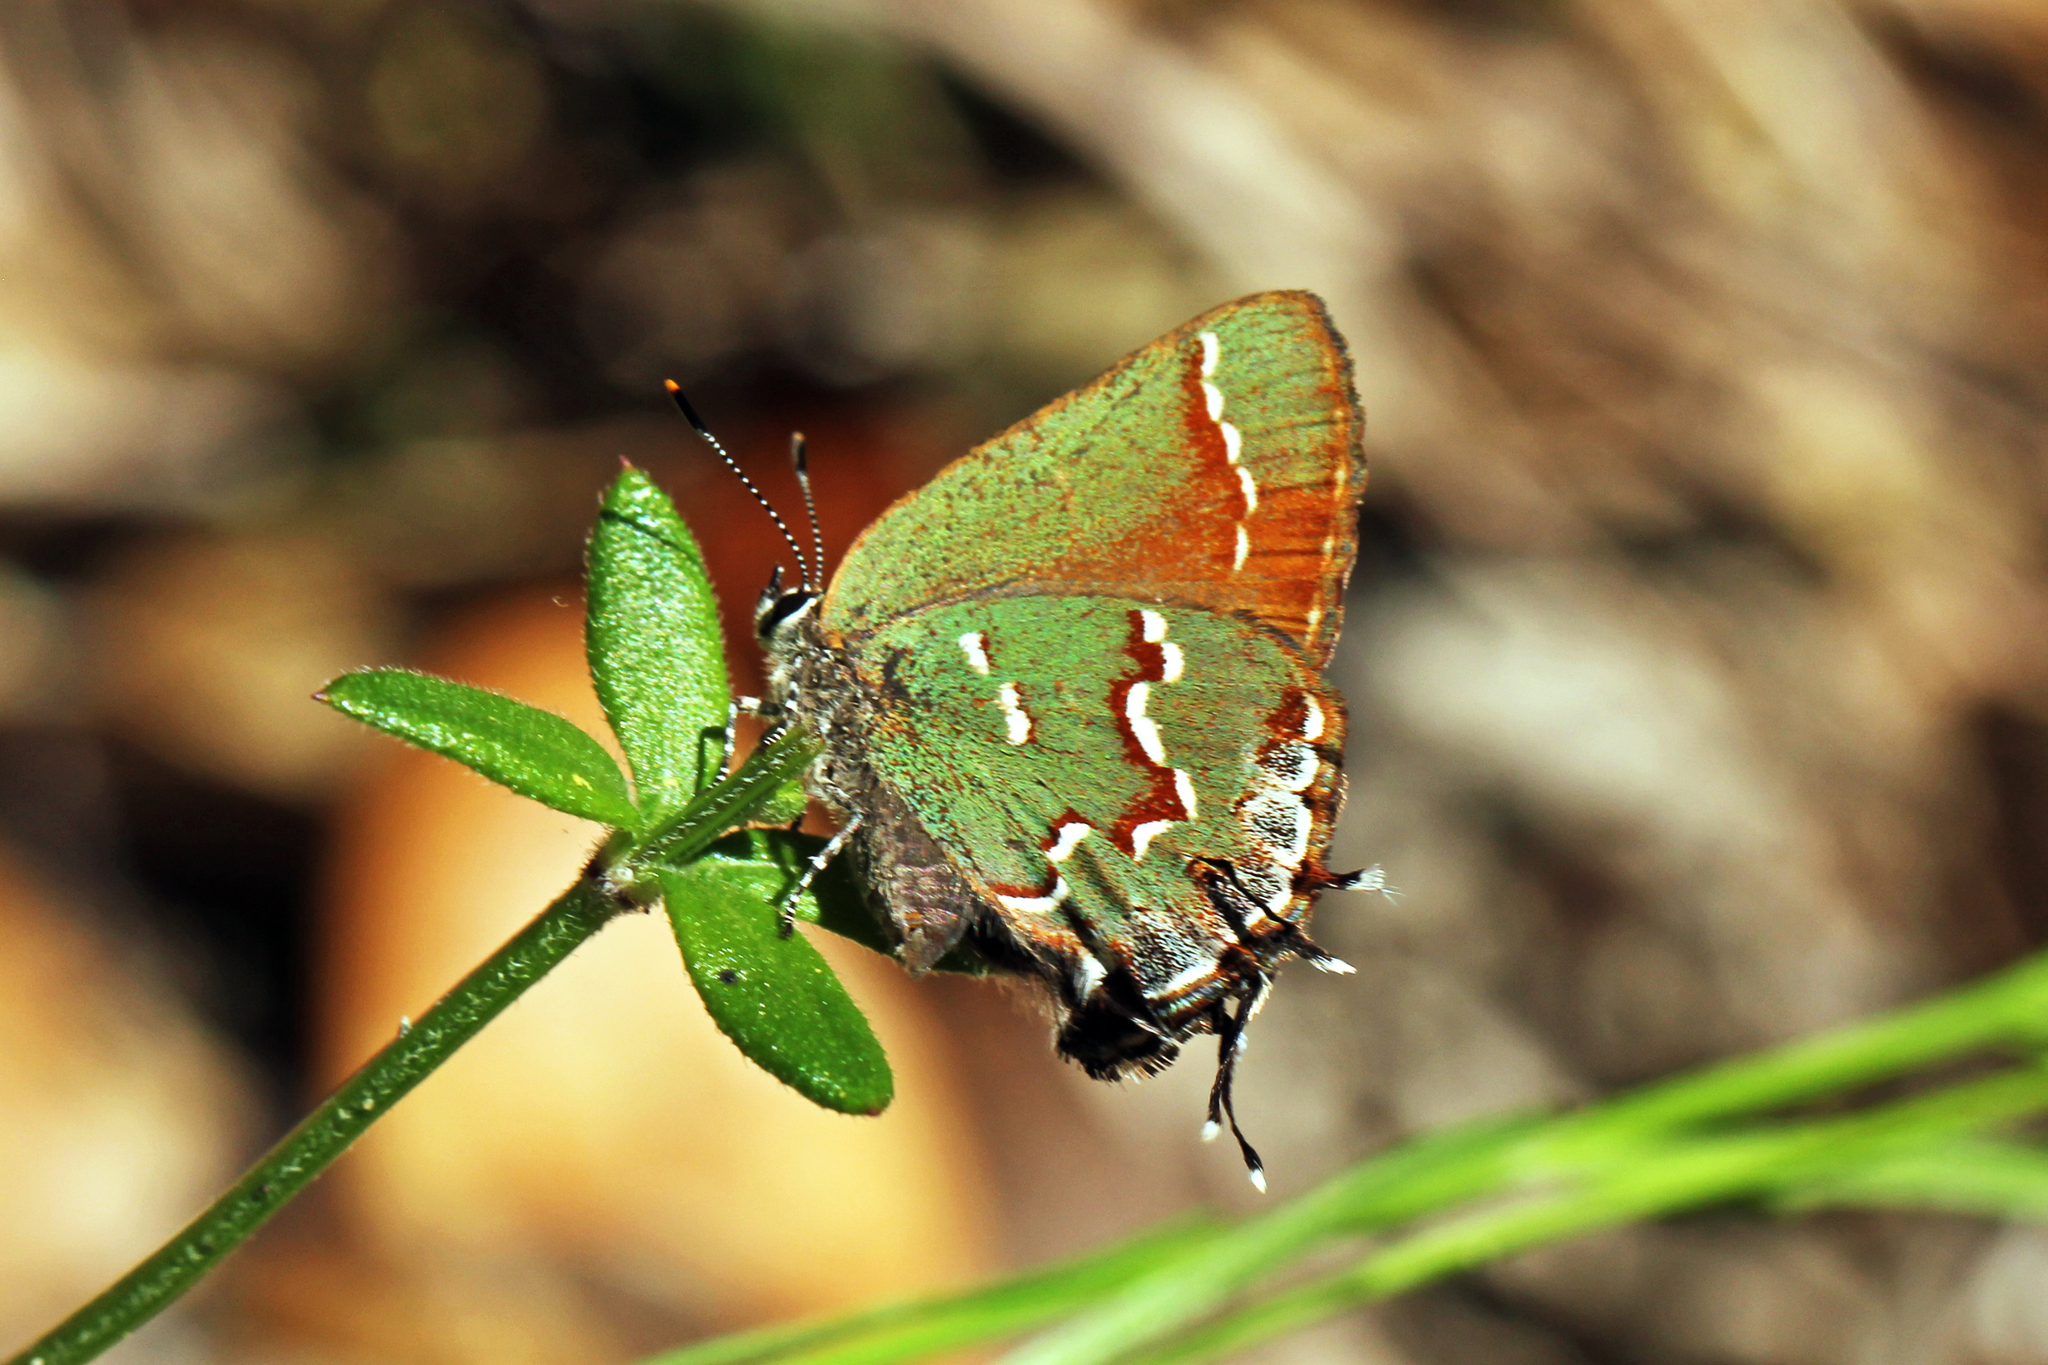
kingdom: Animalia
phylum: Arthropoda
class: Insecta
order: Lepidoptera
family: Lycaenidae
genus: Mitoura
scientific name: Mitoura gryneus
